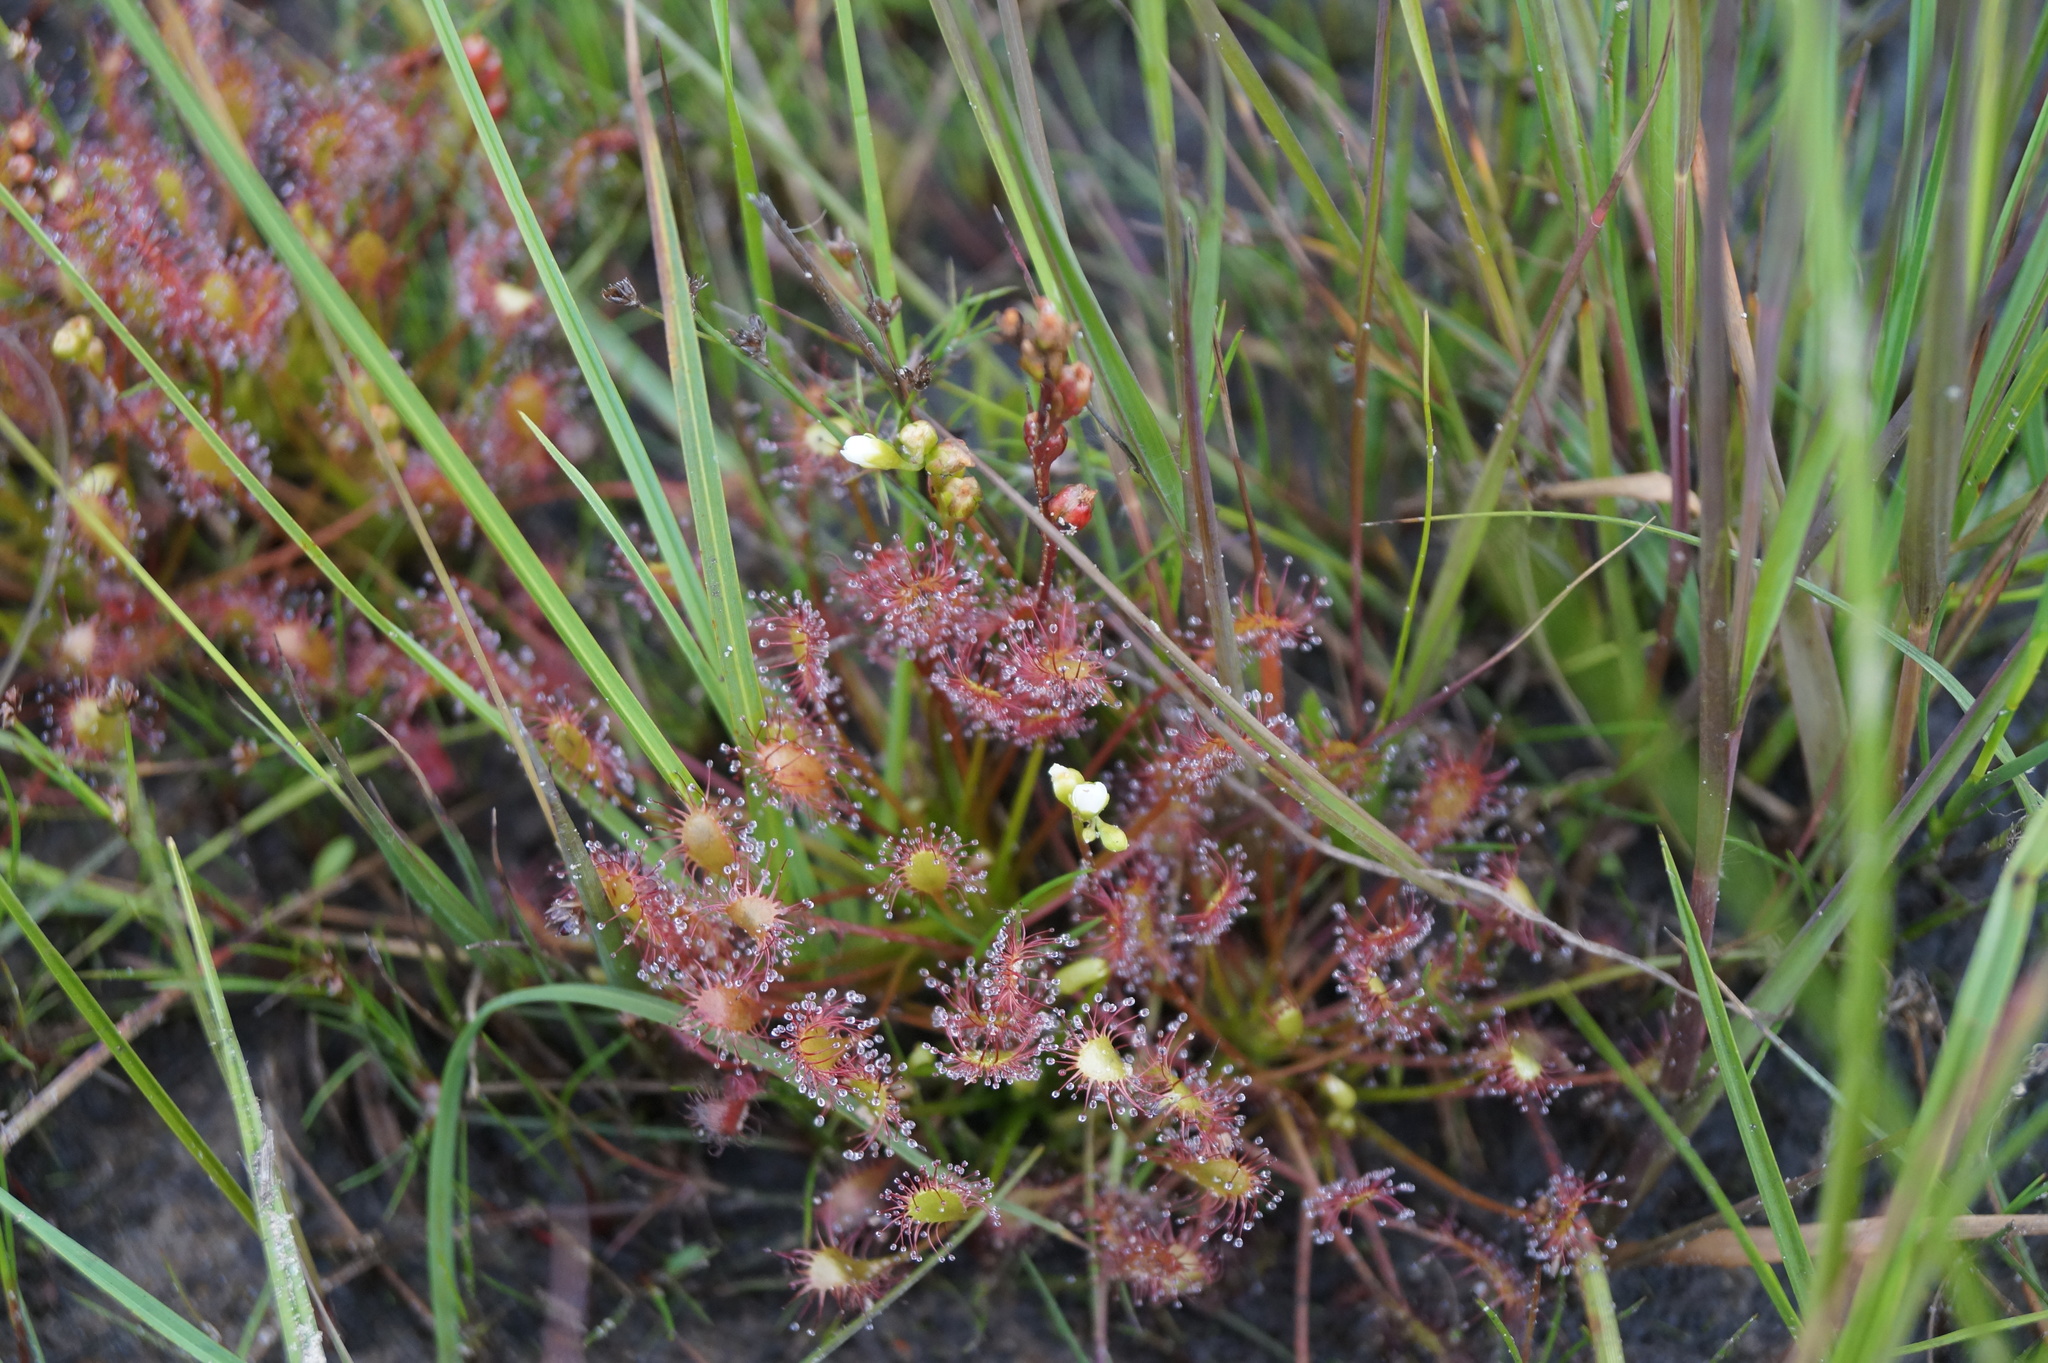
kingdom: Plantae
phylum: Tracheophyta
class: Magnoliopsida
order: Caryophyllales
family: Droseraceae
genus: Drosera
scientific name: Drosera intermedia
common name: Oblong-leaved sundew
